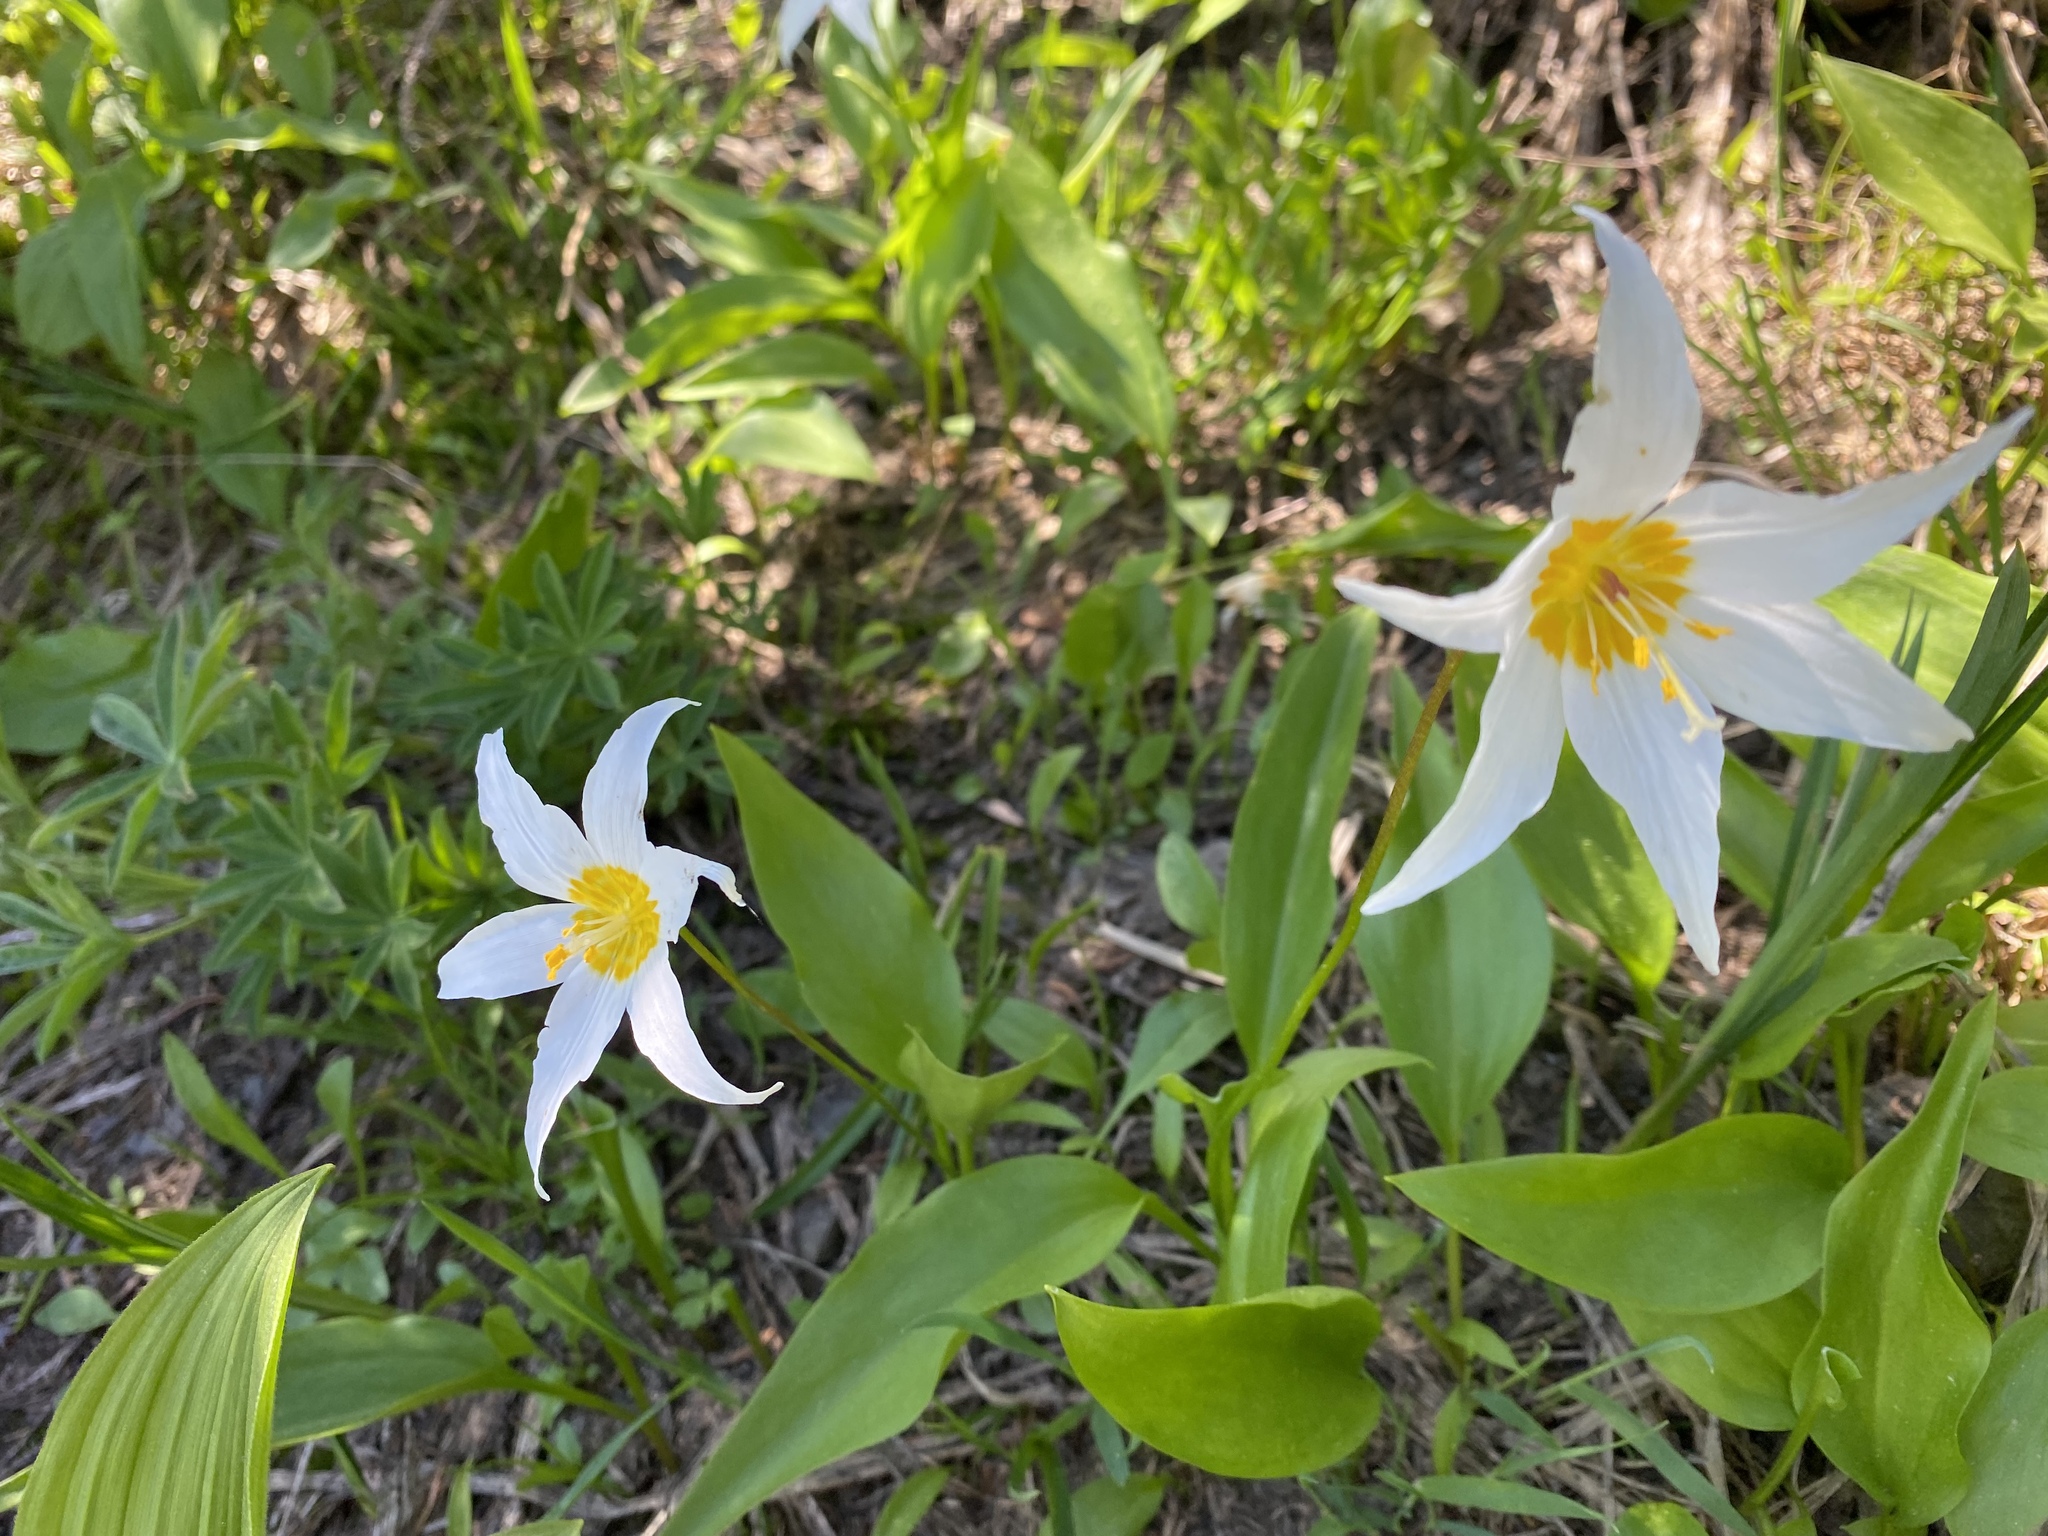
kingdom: Plantae
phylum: Tracheophyta
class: Liliopsida
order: Liliales
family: Liliaceae
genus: Erythronium
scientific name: Erythronium montanum
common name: Avalanche lily
